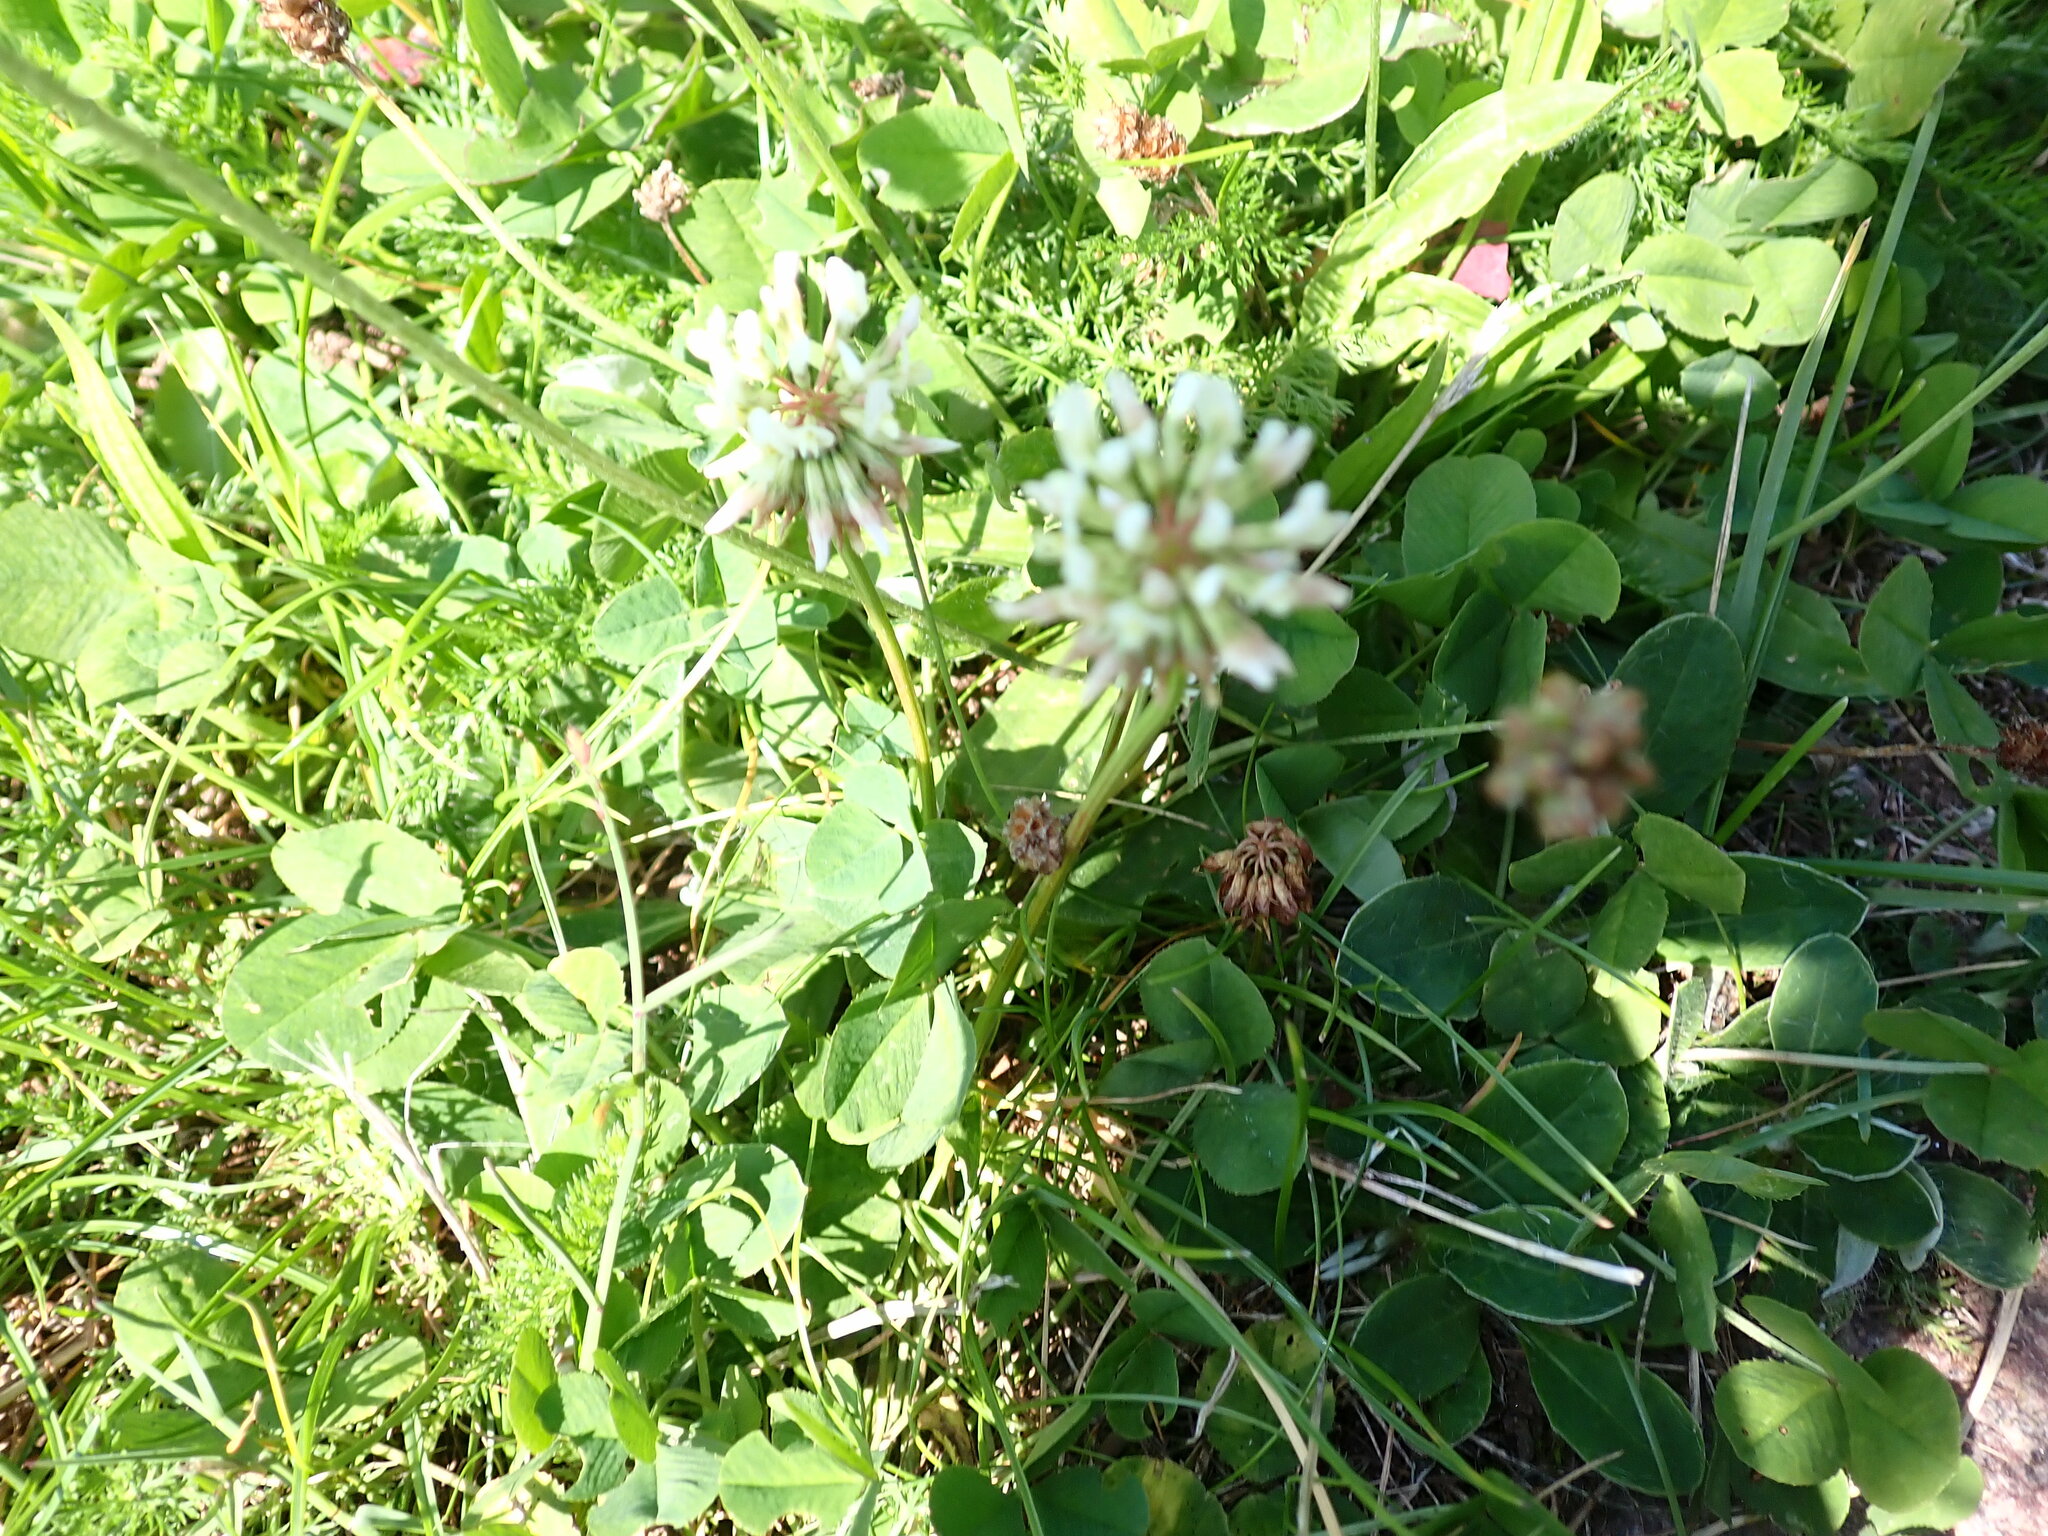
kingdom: Plantae
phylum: Tracheophyta
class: Magnoliopsida
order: Fabales
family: Fabaceae
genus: Trifolium
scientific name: Trifolium repens
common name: White clover
